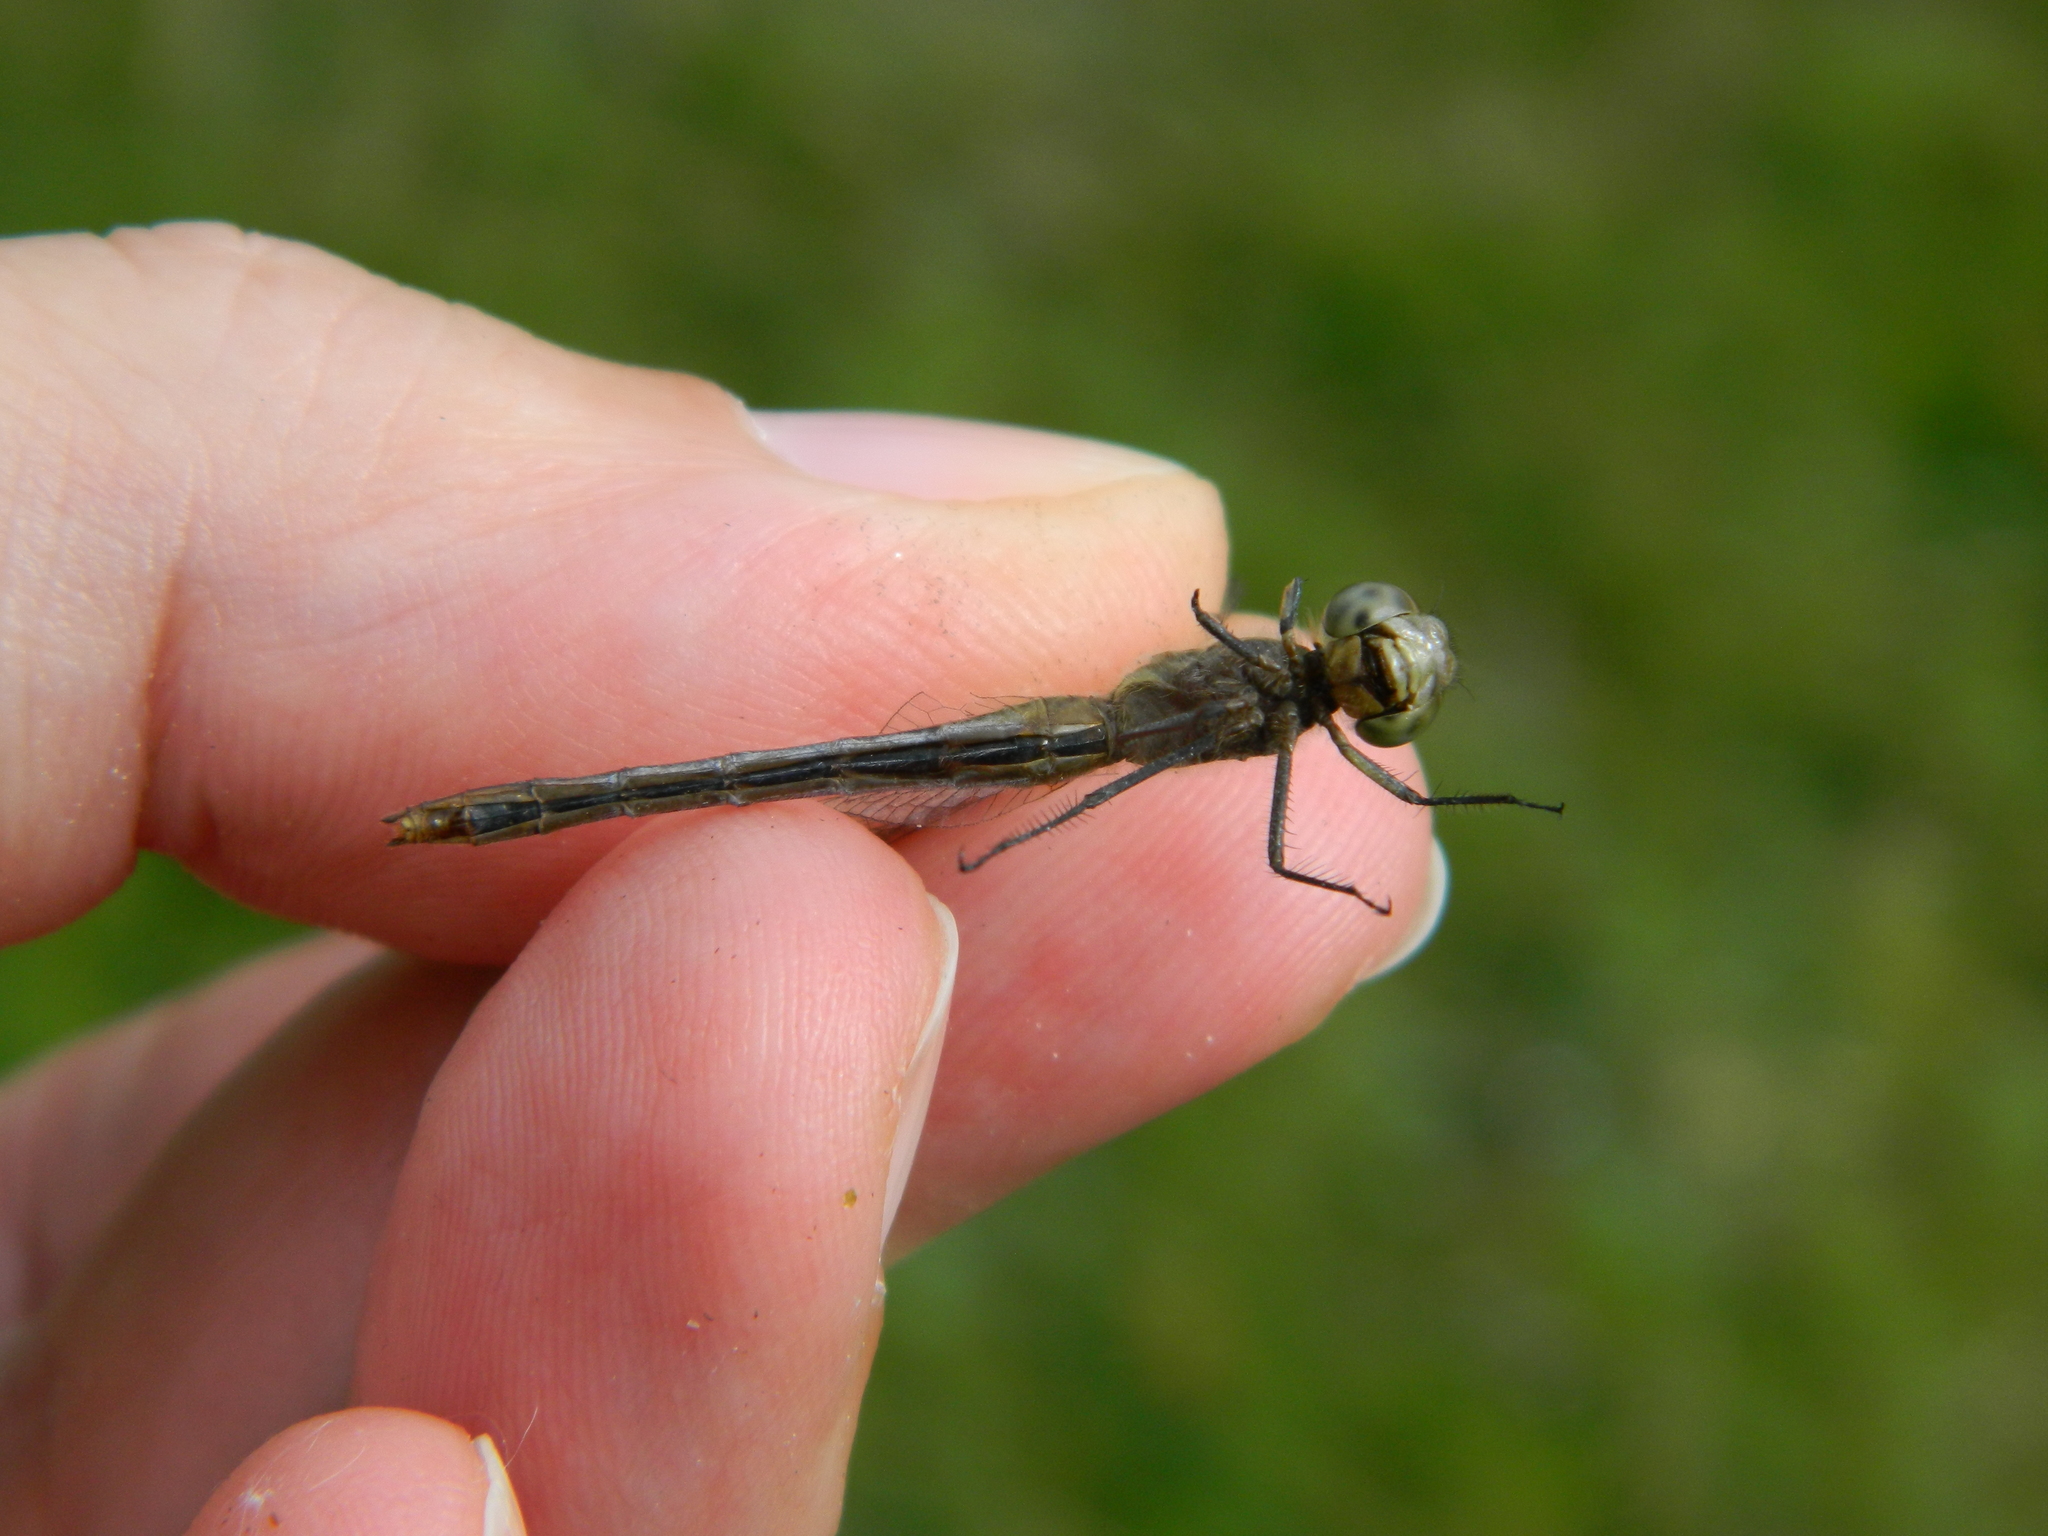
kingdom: Animalia
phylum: Arthropoda
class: Insecta
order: Odonata
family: Libellulidae
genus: Sympetrum
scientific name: Sympetrum obtrusum
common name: White-faced meadowhawk
